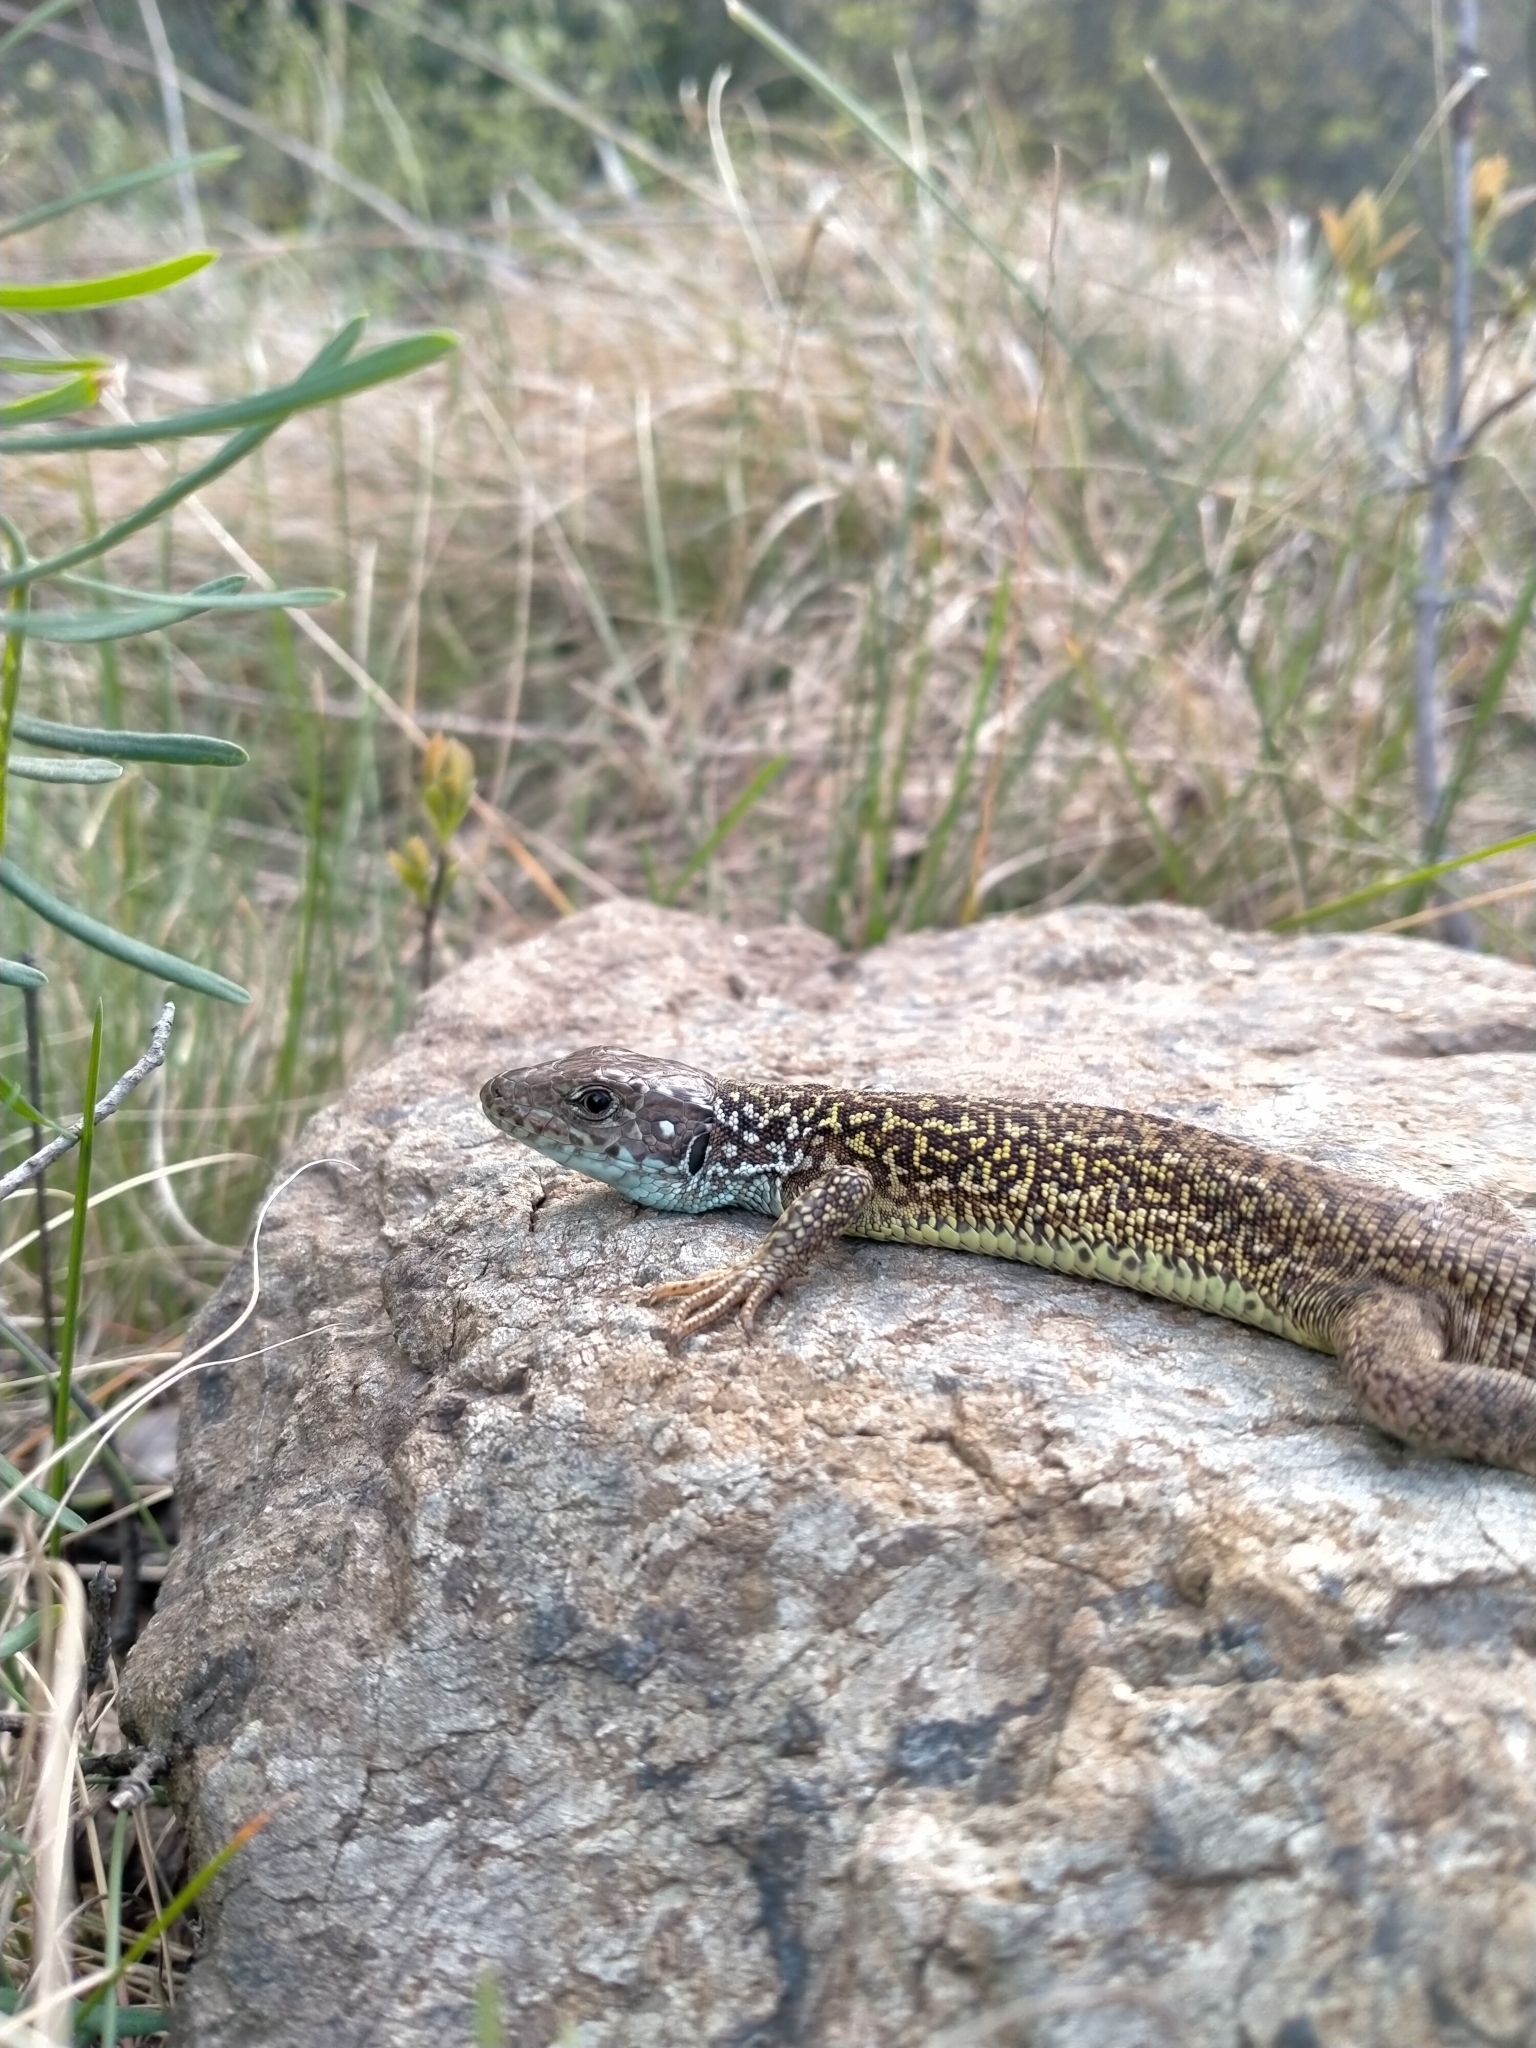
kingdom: Animalia
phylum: Chordata
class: Squamata
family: Lacertidae
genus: Lacerta
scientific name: Lacerta viridis
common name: European green lizard
